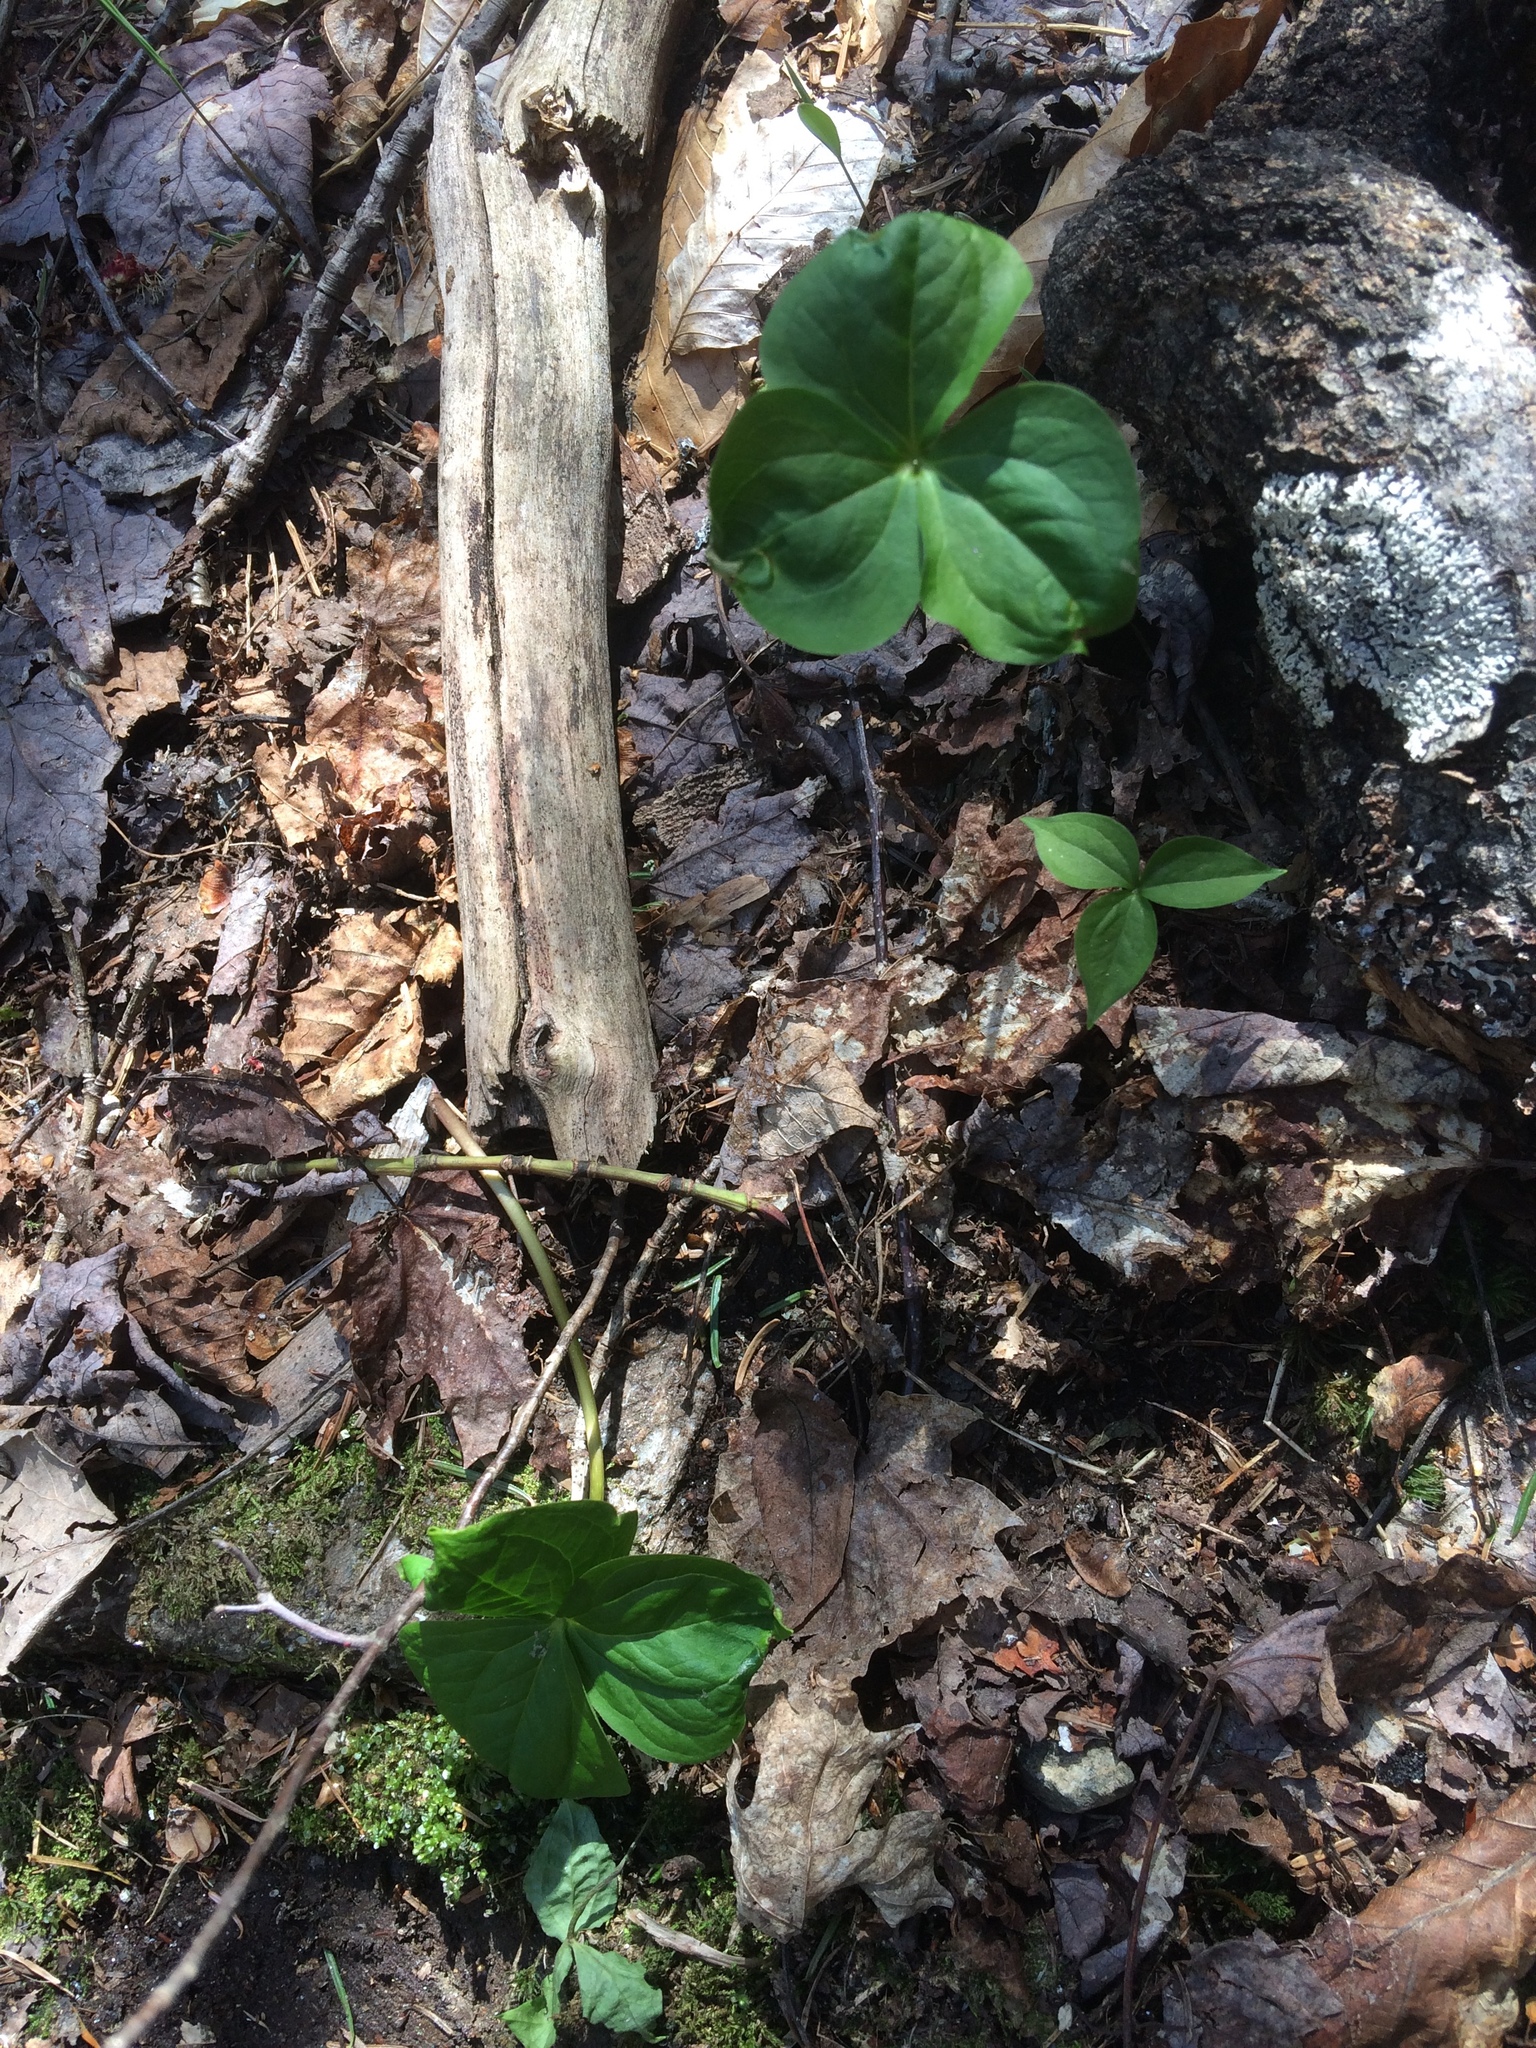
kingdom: Plantae
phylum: Tracheophyta
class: Liliopsida
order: Liliales
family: Melanthiaceae
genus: Trillium
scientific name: Trillium erectum
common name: Purple trillium
